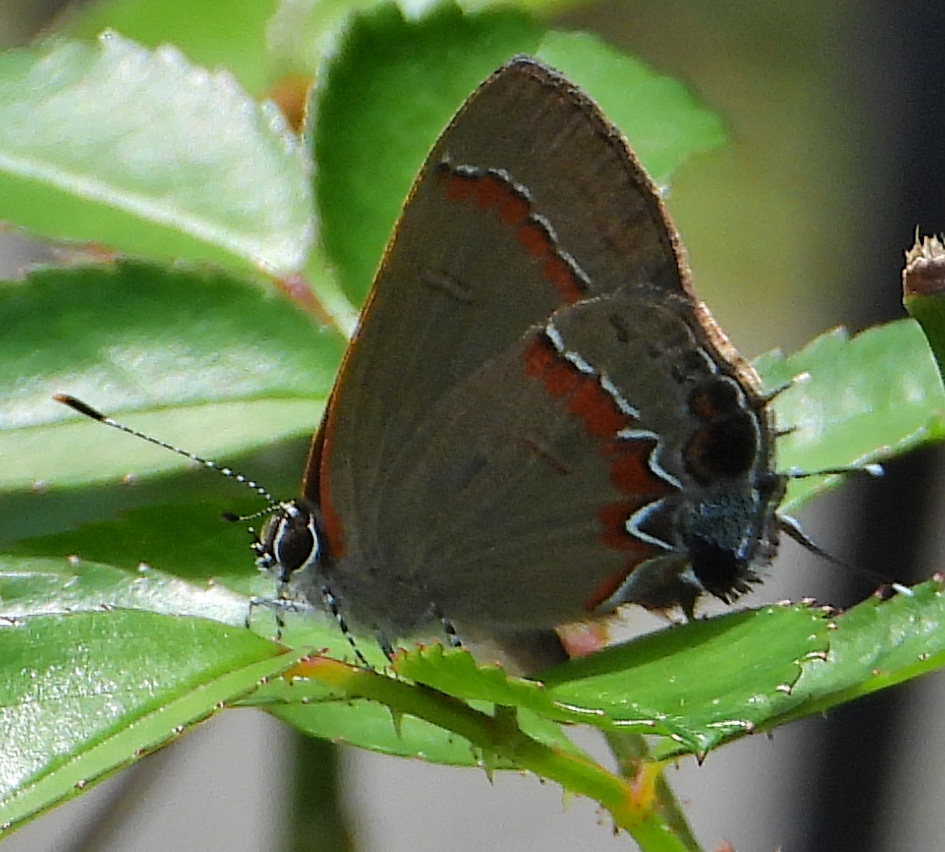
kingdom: Animalia
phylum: Arthropoda
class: Insecta
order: Lepidoptera
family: Lycaenidae
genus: Calycopis
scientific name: Calycopis cecrops
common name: Red-banded hairstreak
